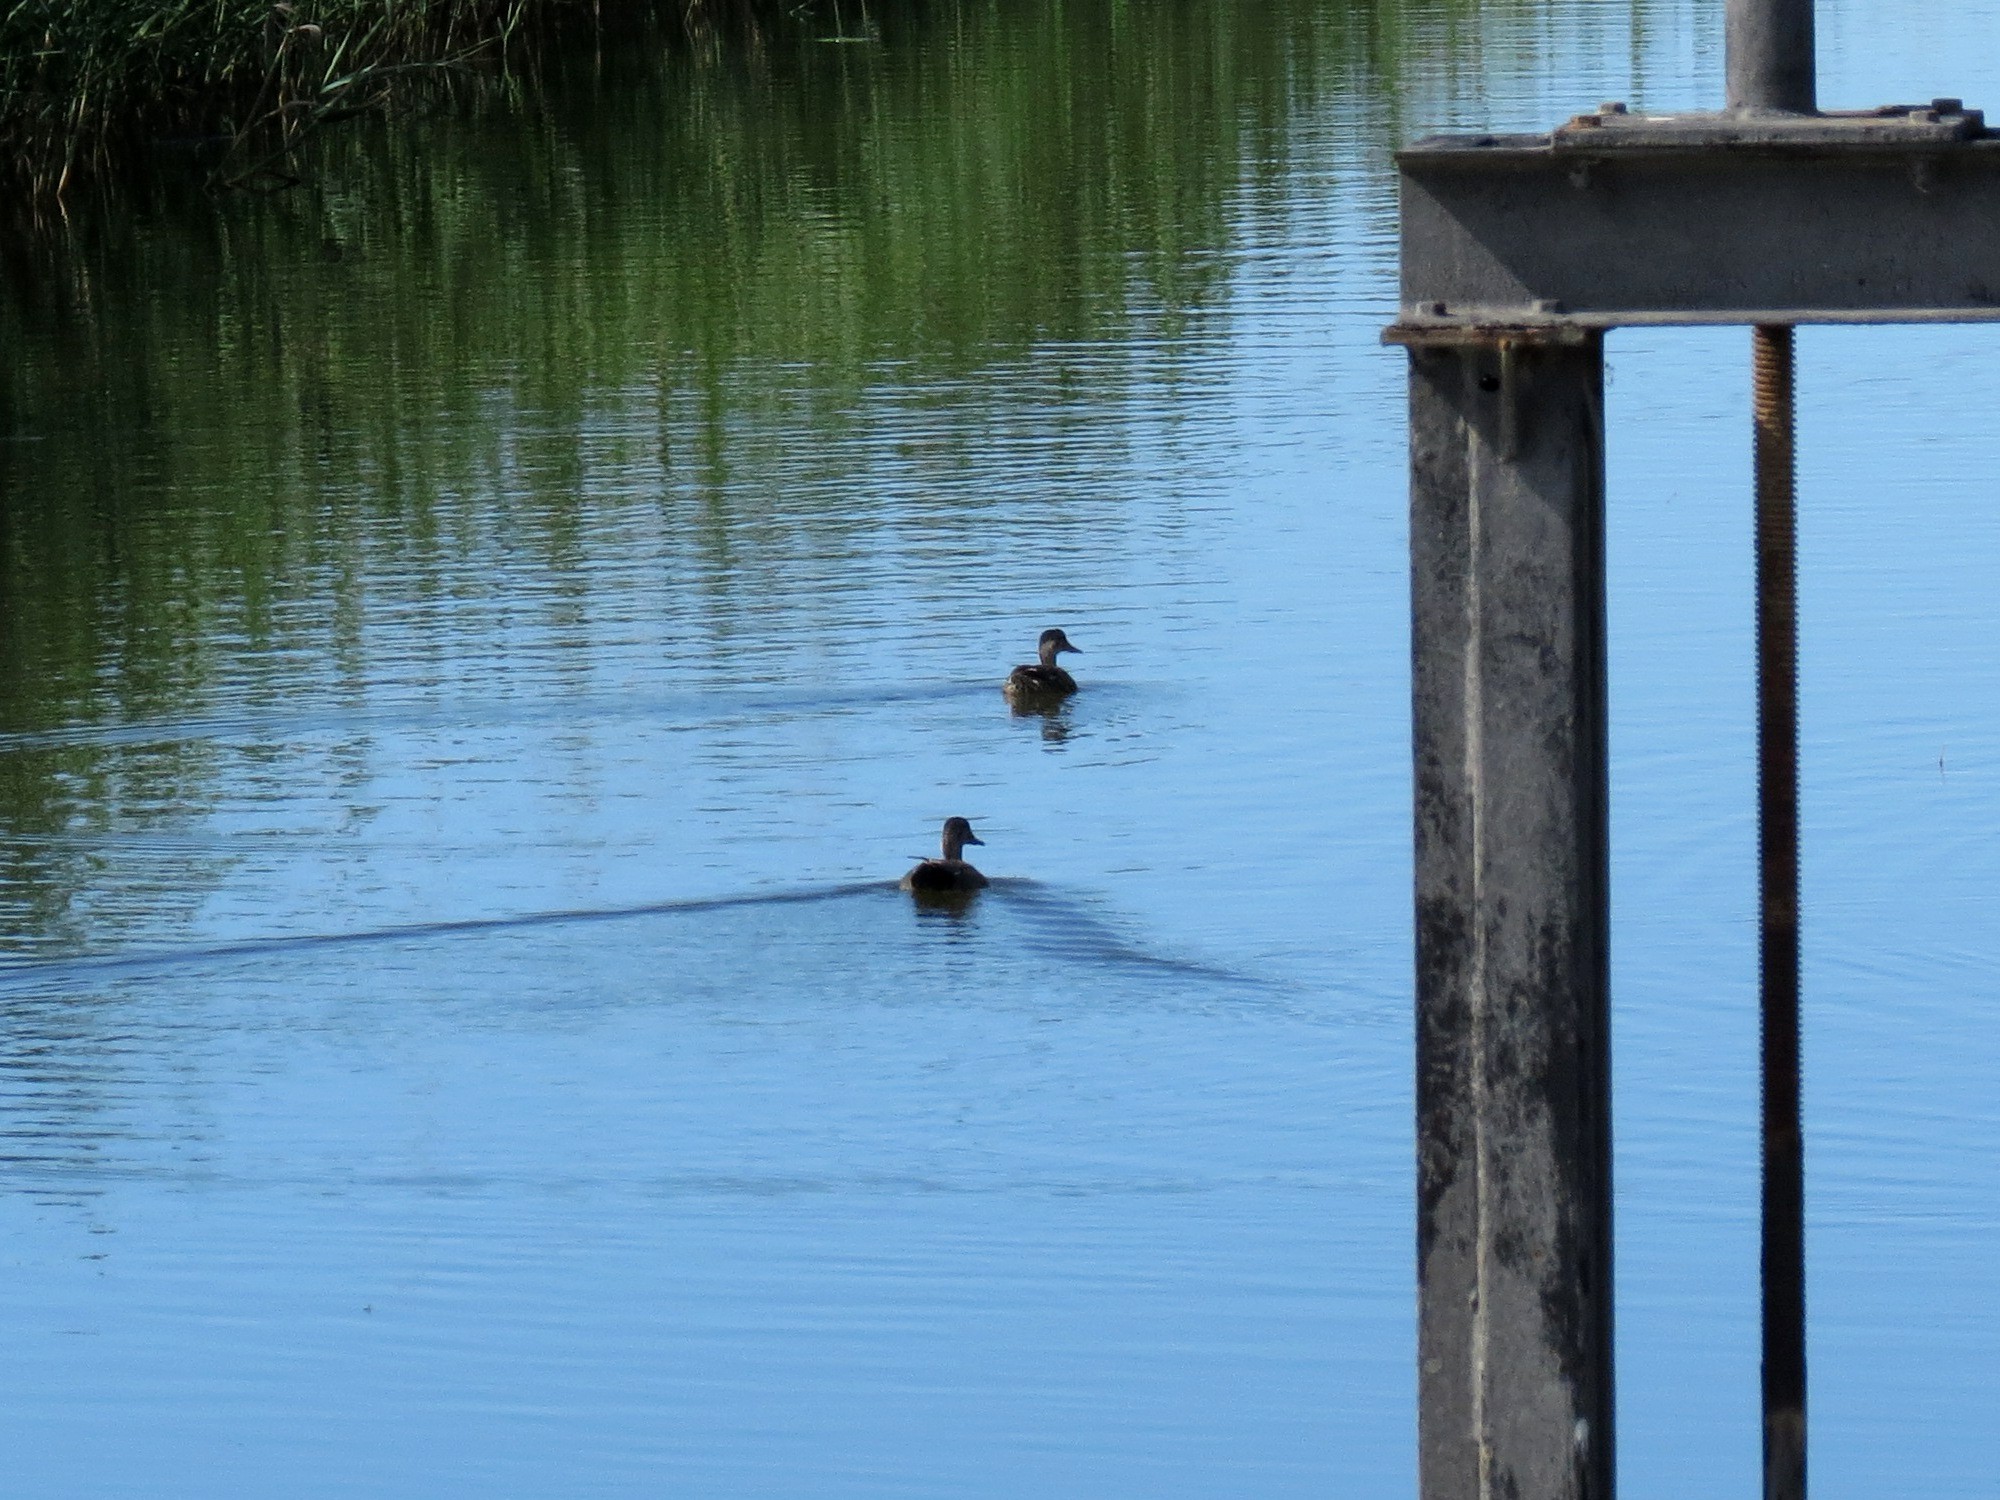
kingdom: Animalia
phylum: Chordata
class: Aves
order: Anseriformes
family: Anatidae
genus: Mareca
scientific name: Mareca strepera
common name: Gadwall
